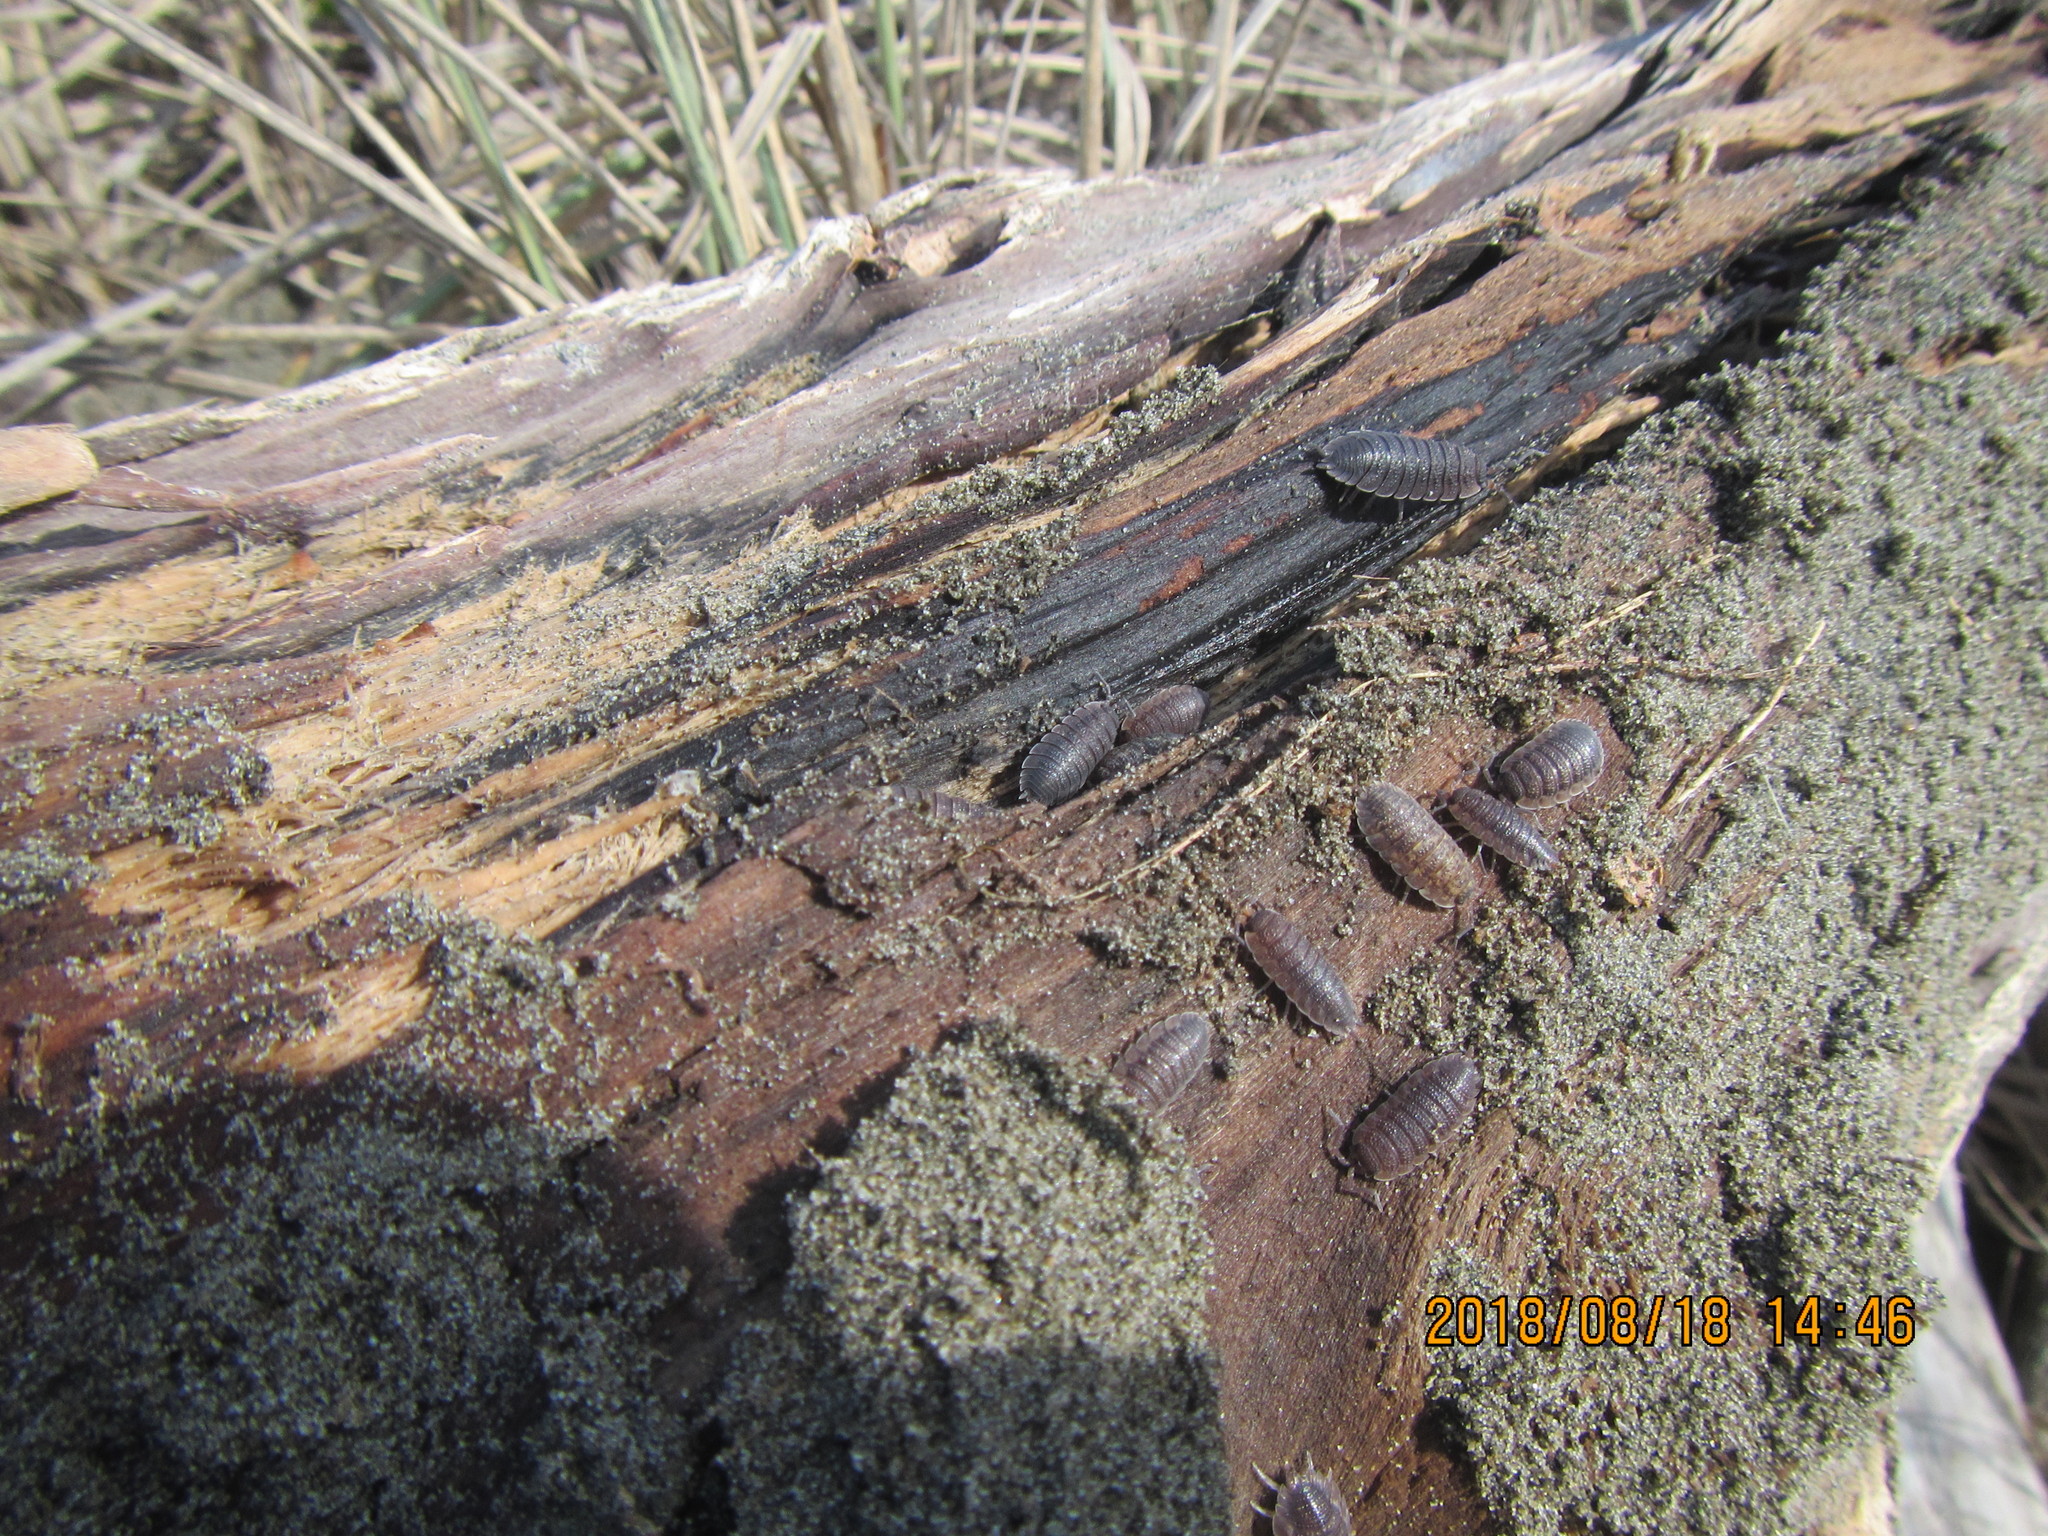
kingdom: Animalia
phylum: Arthropoda
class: Malacostraca
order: Isopoda
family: Porcellionidae
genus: Porcellio
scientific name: Porcellio scaber
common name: Common rough woodlouse
